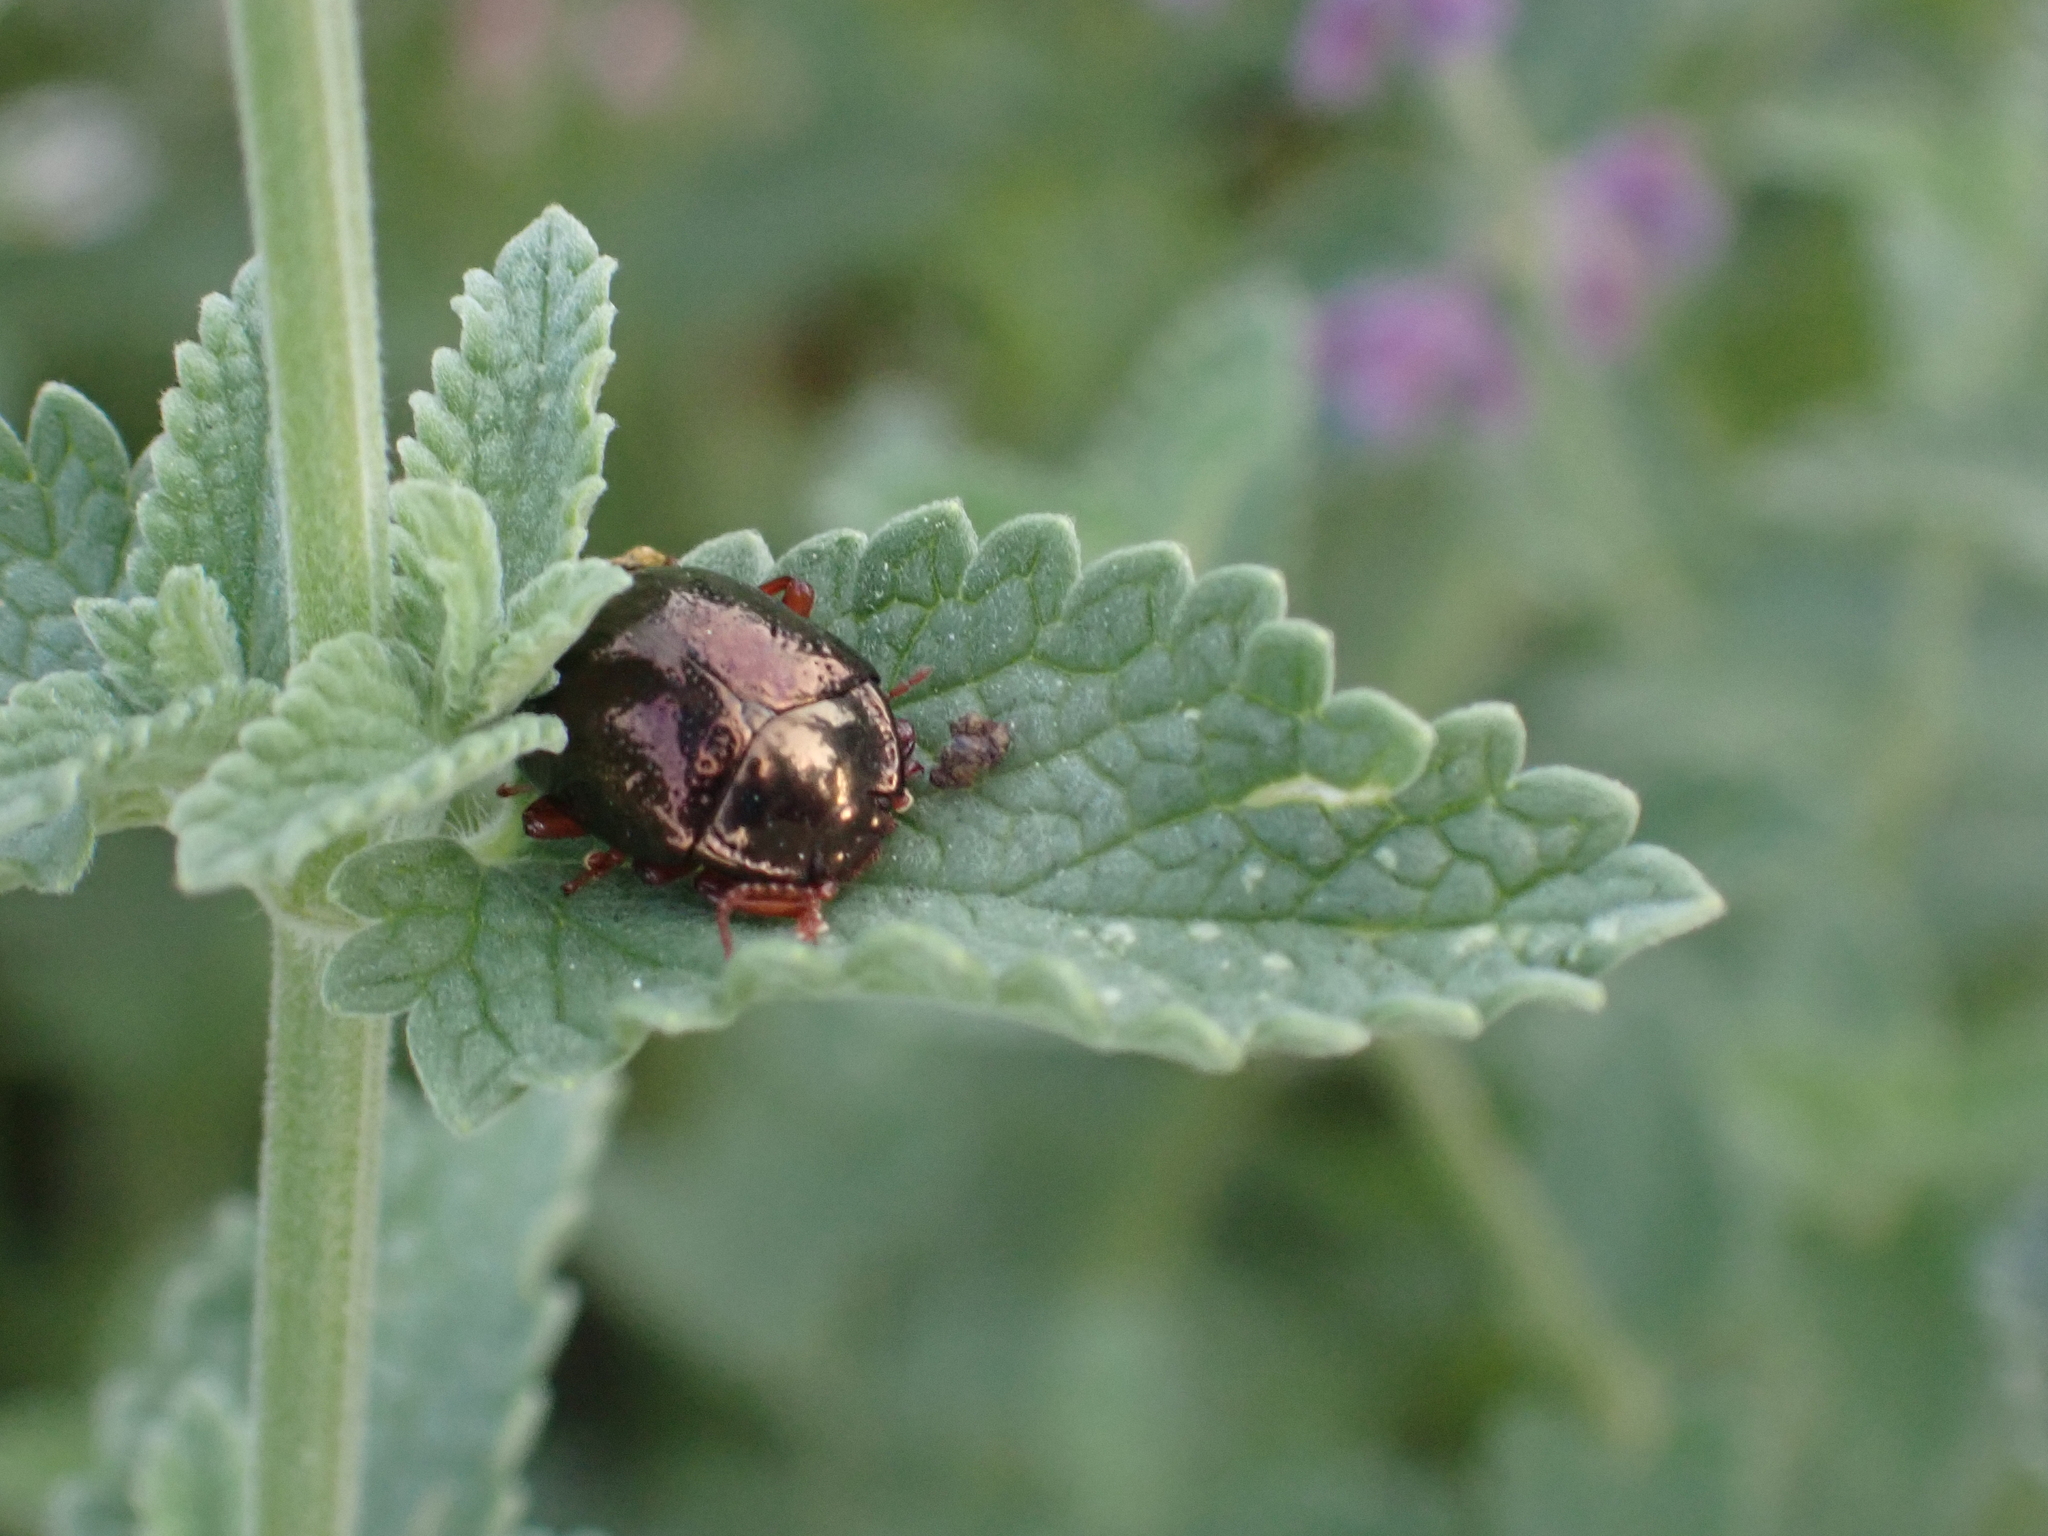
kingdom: Animalia
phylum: Arthropoda
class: Insecta
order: Coleoptera
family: Chrysomelidae
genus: Chrysolina
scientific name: Chrysolina bankii
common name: Leaf beetle
